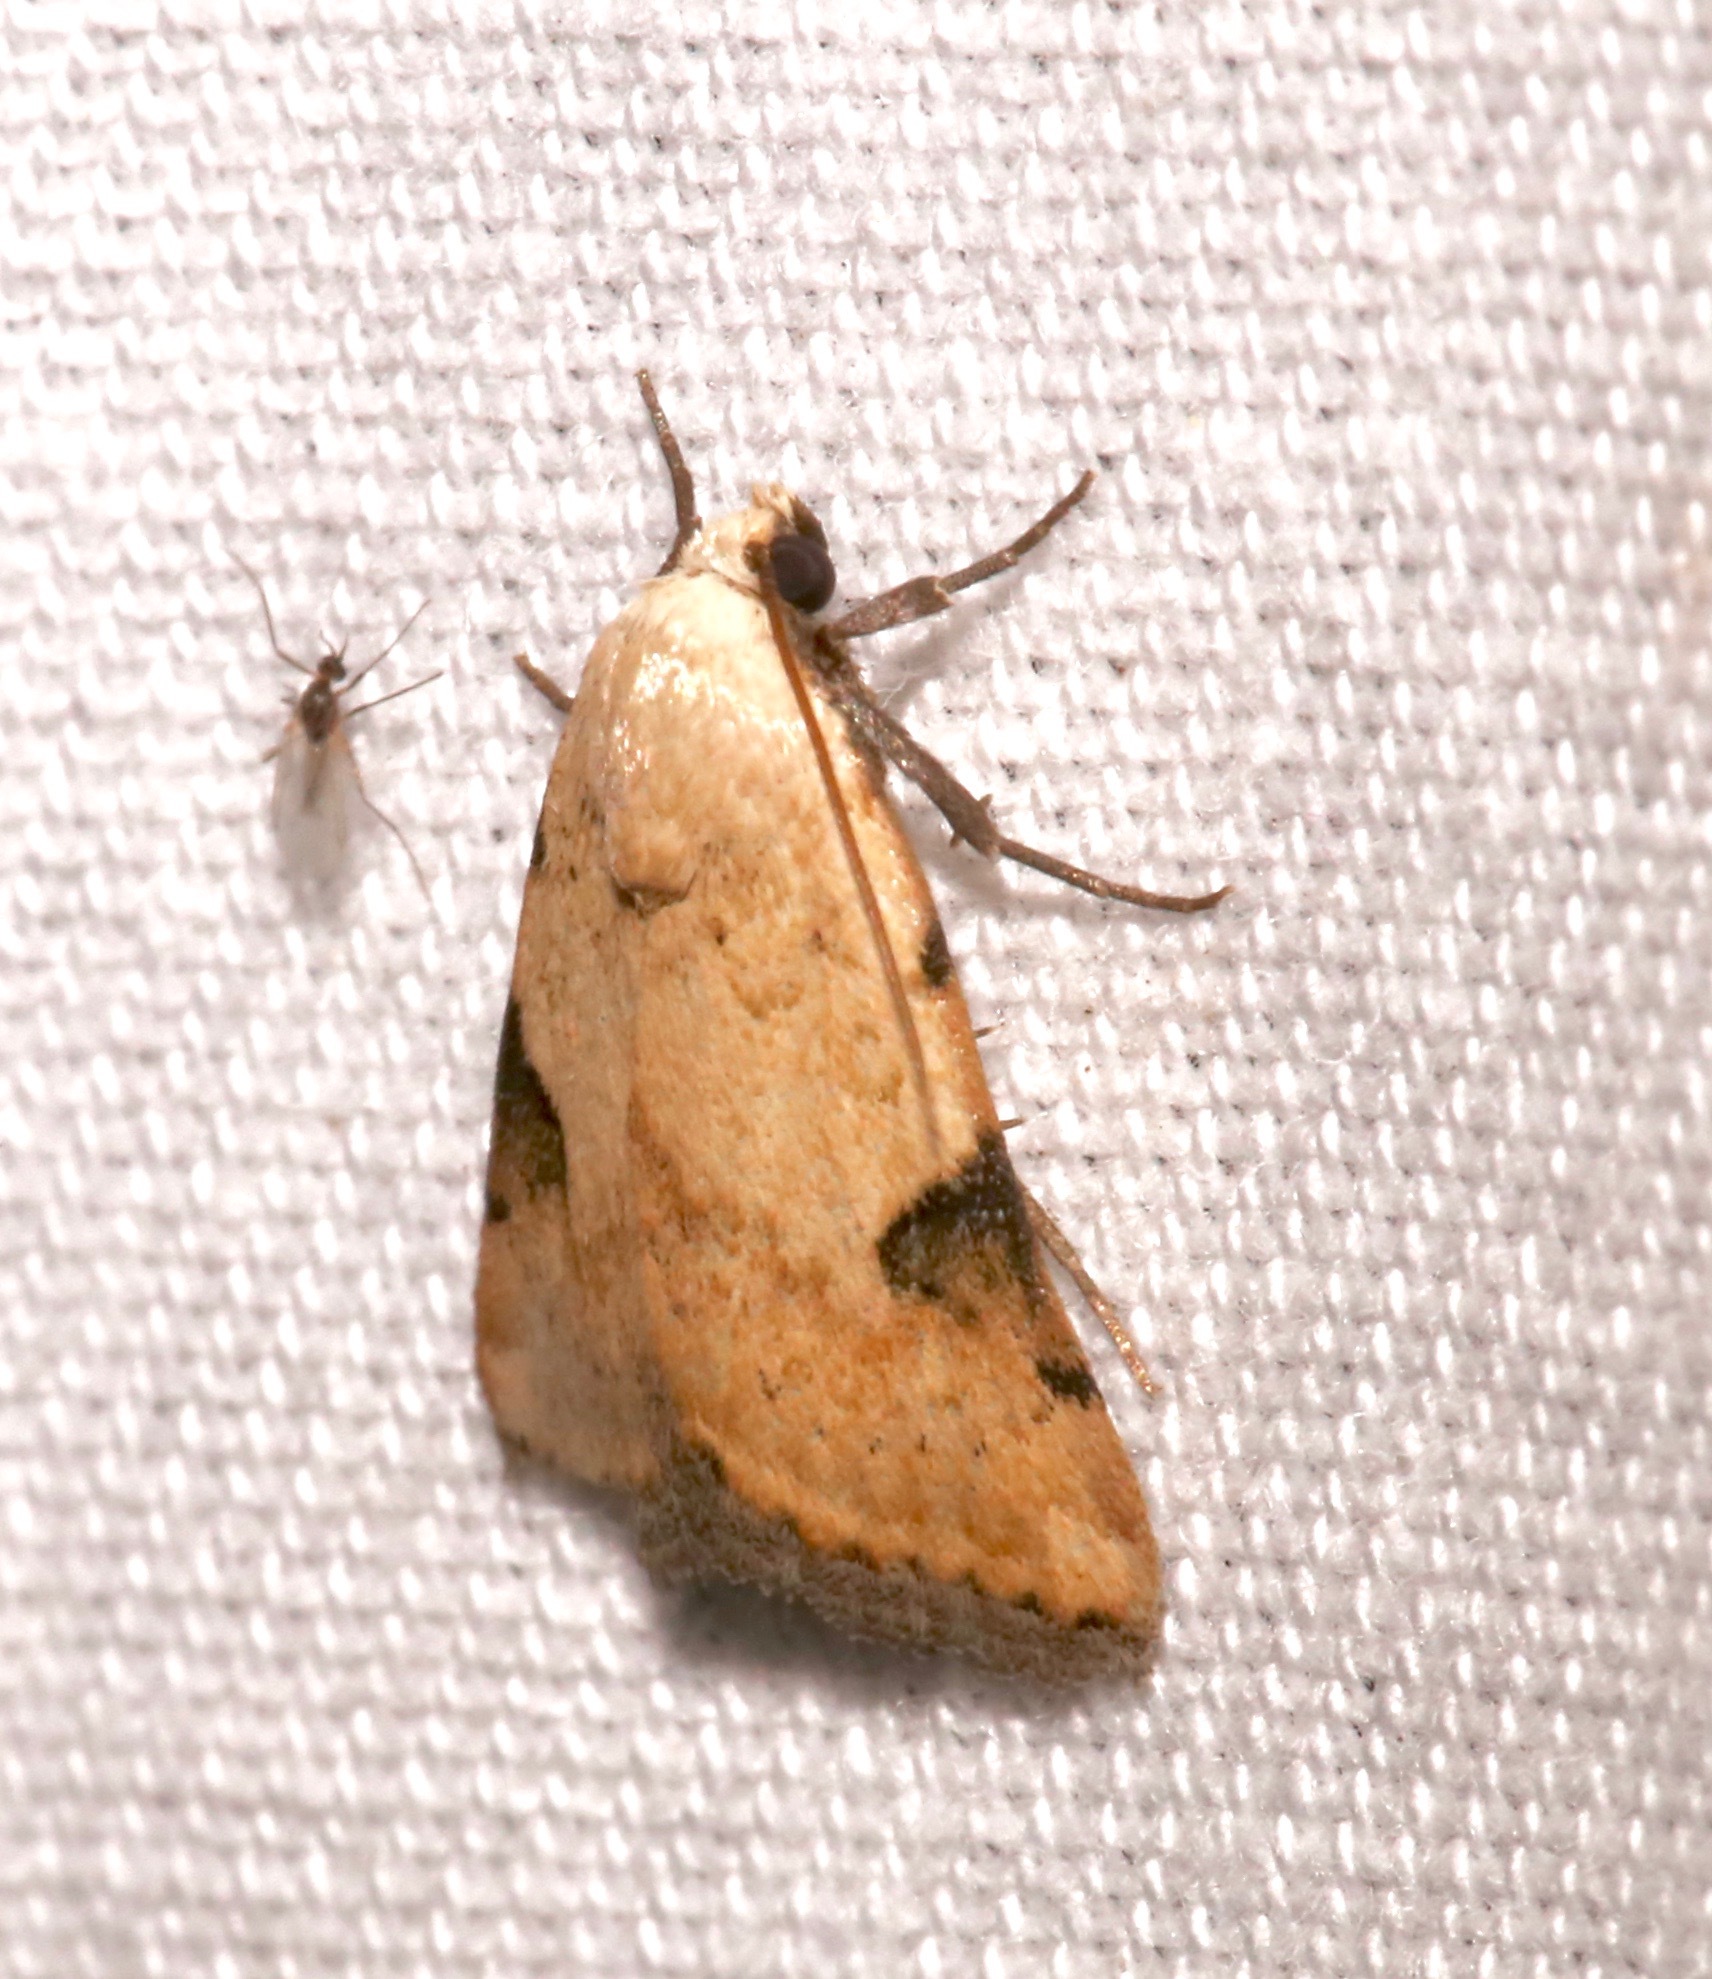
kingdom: Animalia
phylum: Arthropoda
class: Insecta
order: Lepidoptera
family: Noctuidae
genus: Micrathetis
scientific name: Micrathetis costiplaga
